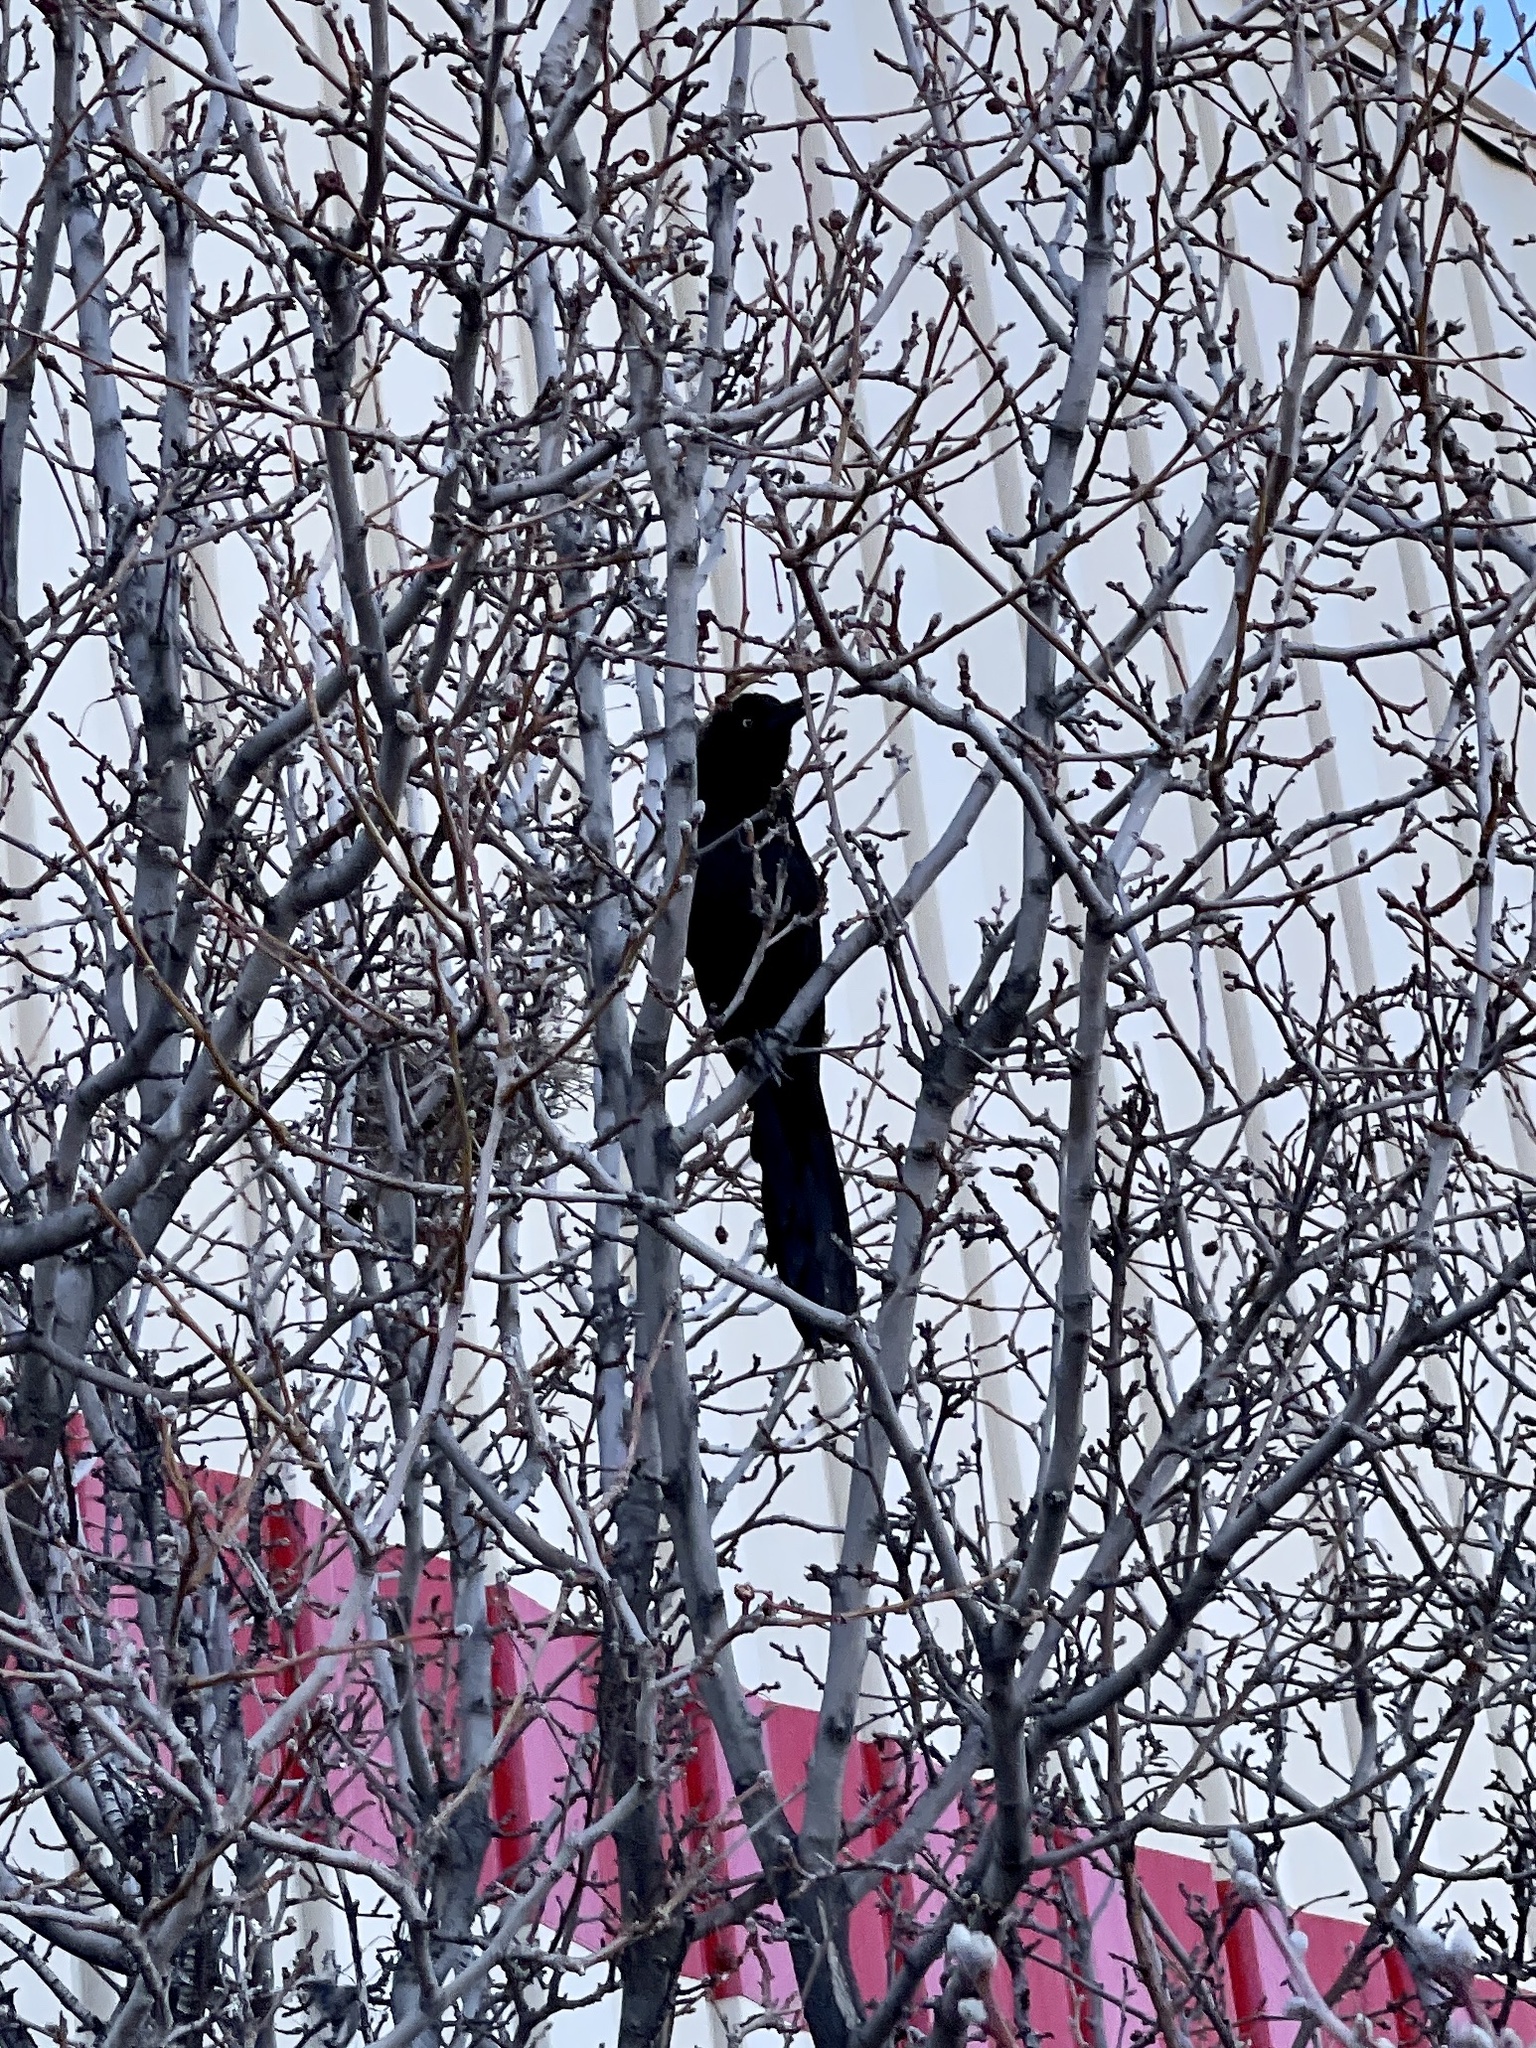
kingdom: Animalia
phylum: Chordata
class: Aves
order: Passeriformes
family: Icteridae
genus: Quiscalus
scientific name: Quiscalus mexicanus
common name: Great-tailed grackle
